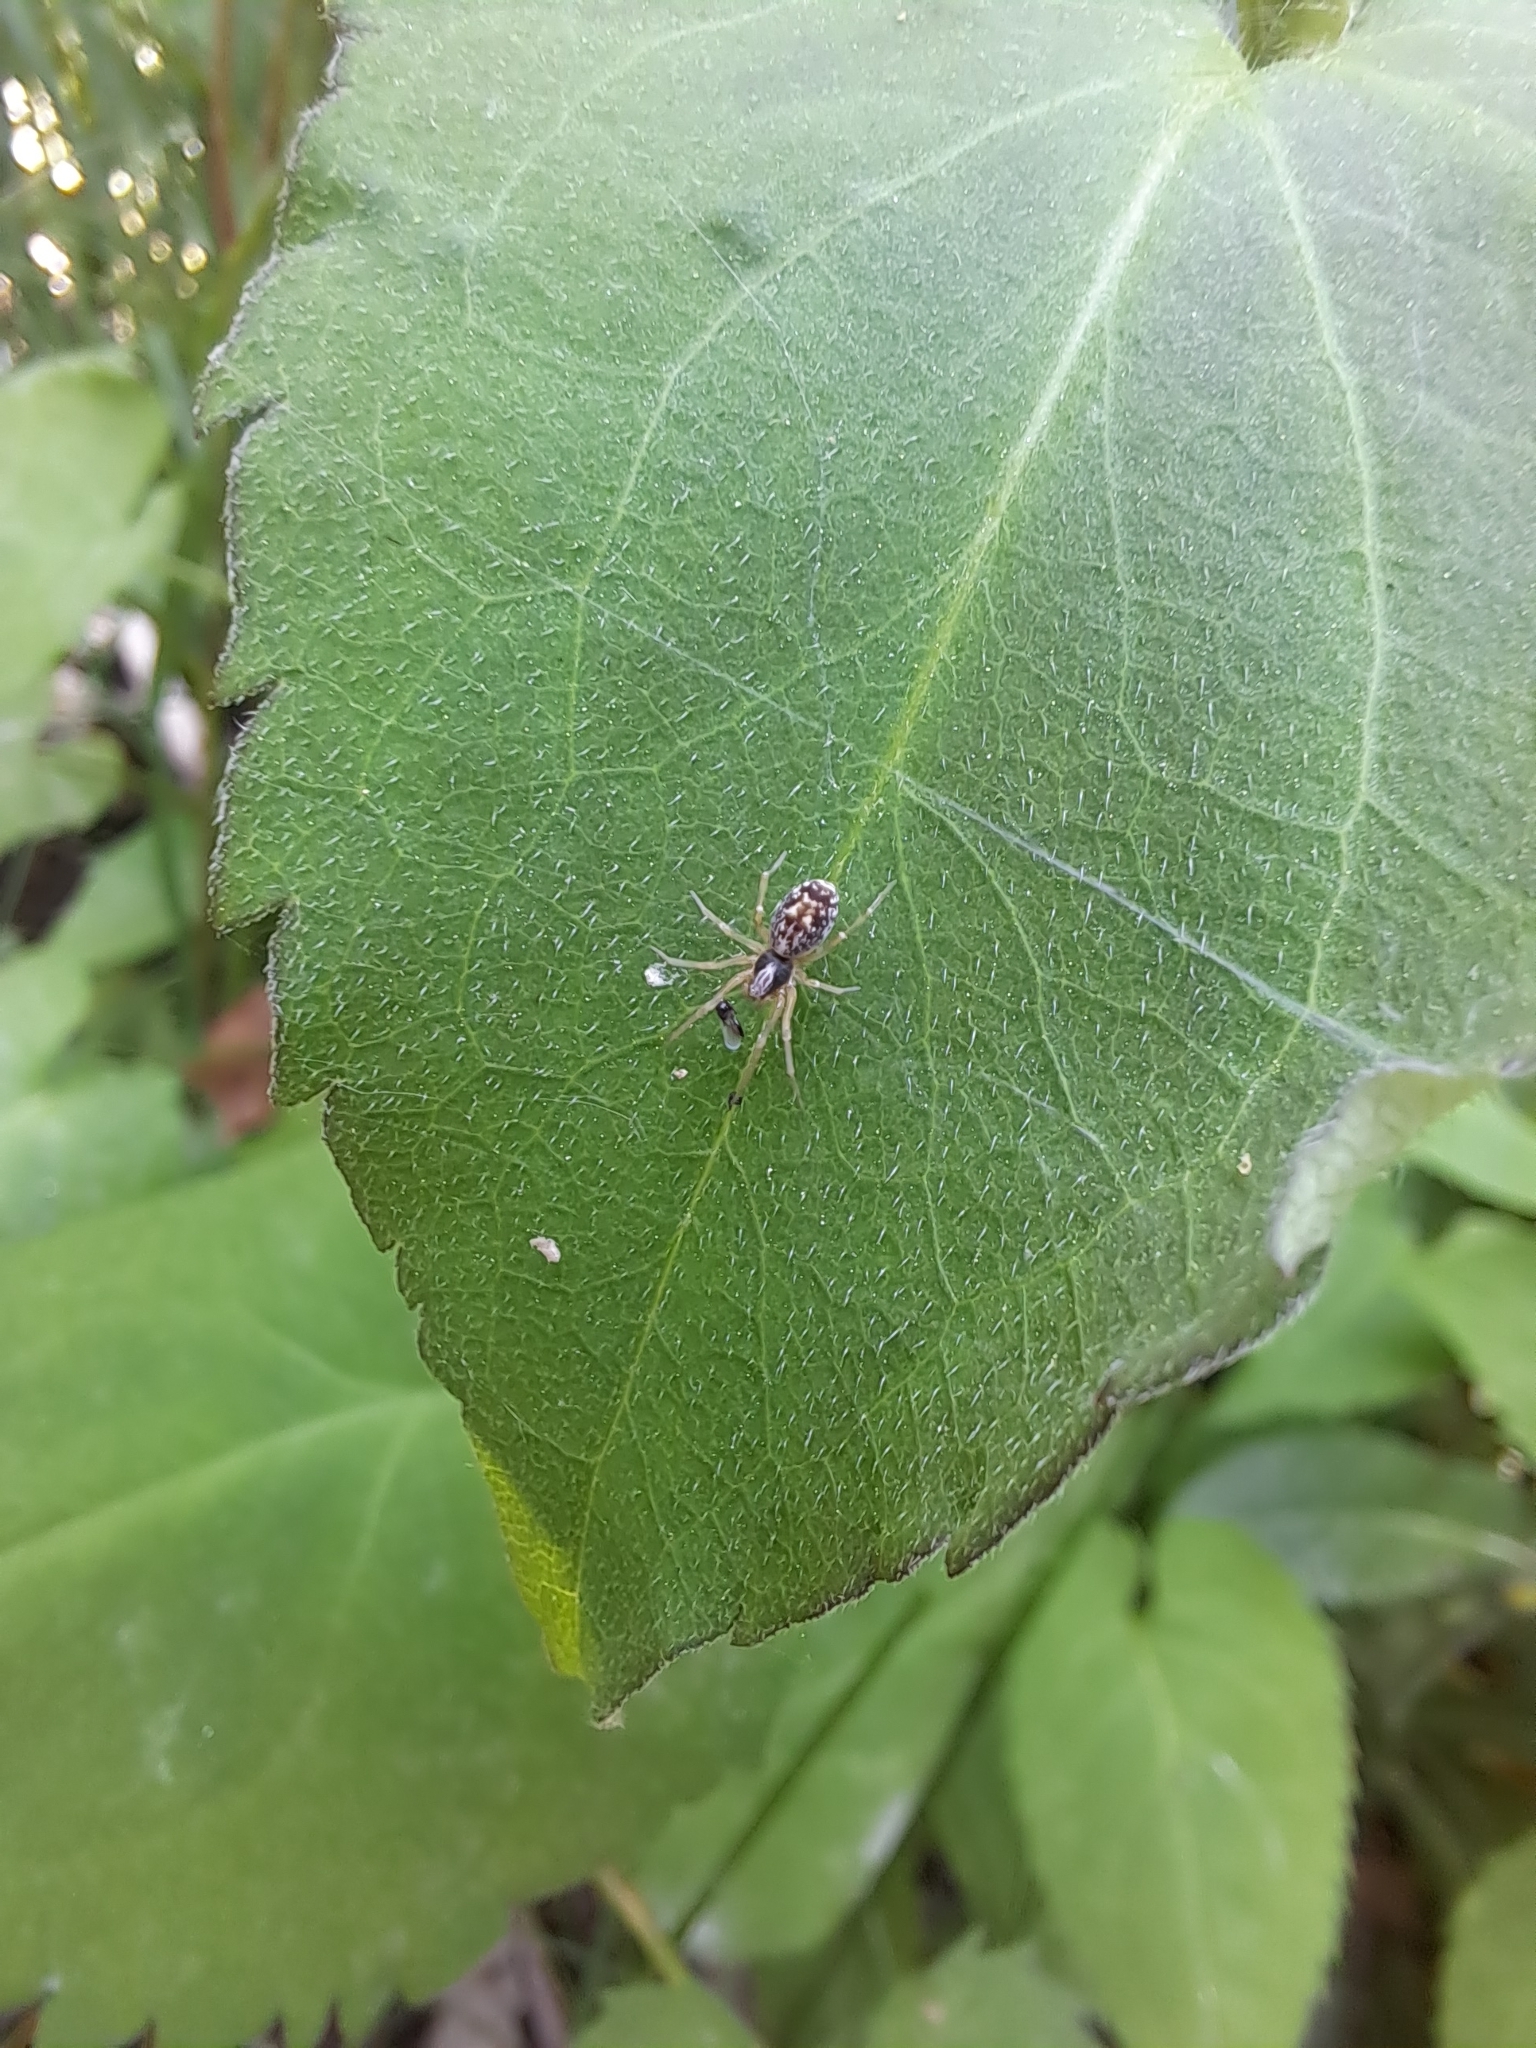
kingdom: Animalia
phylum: Arthropoda
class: Arachnida
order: Araneae
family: Dictynidae
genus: Emblyna
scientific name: Emblyna sublata
